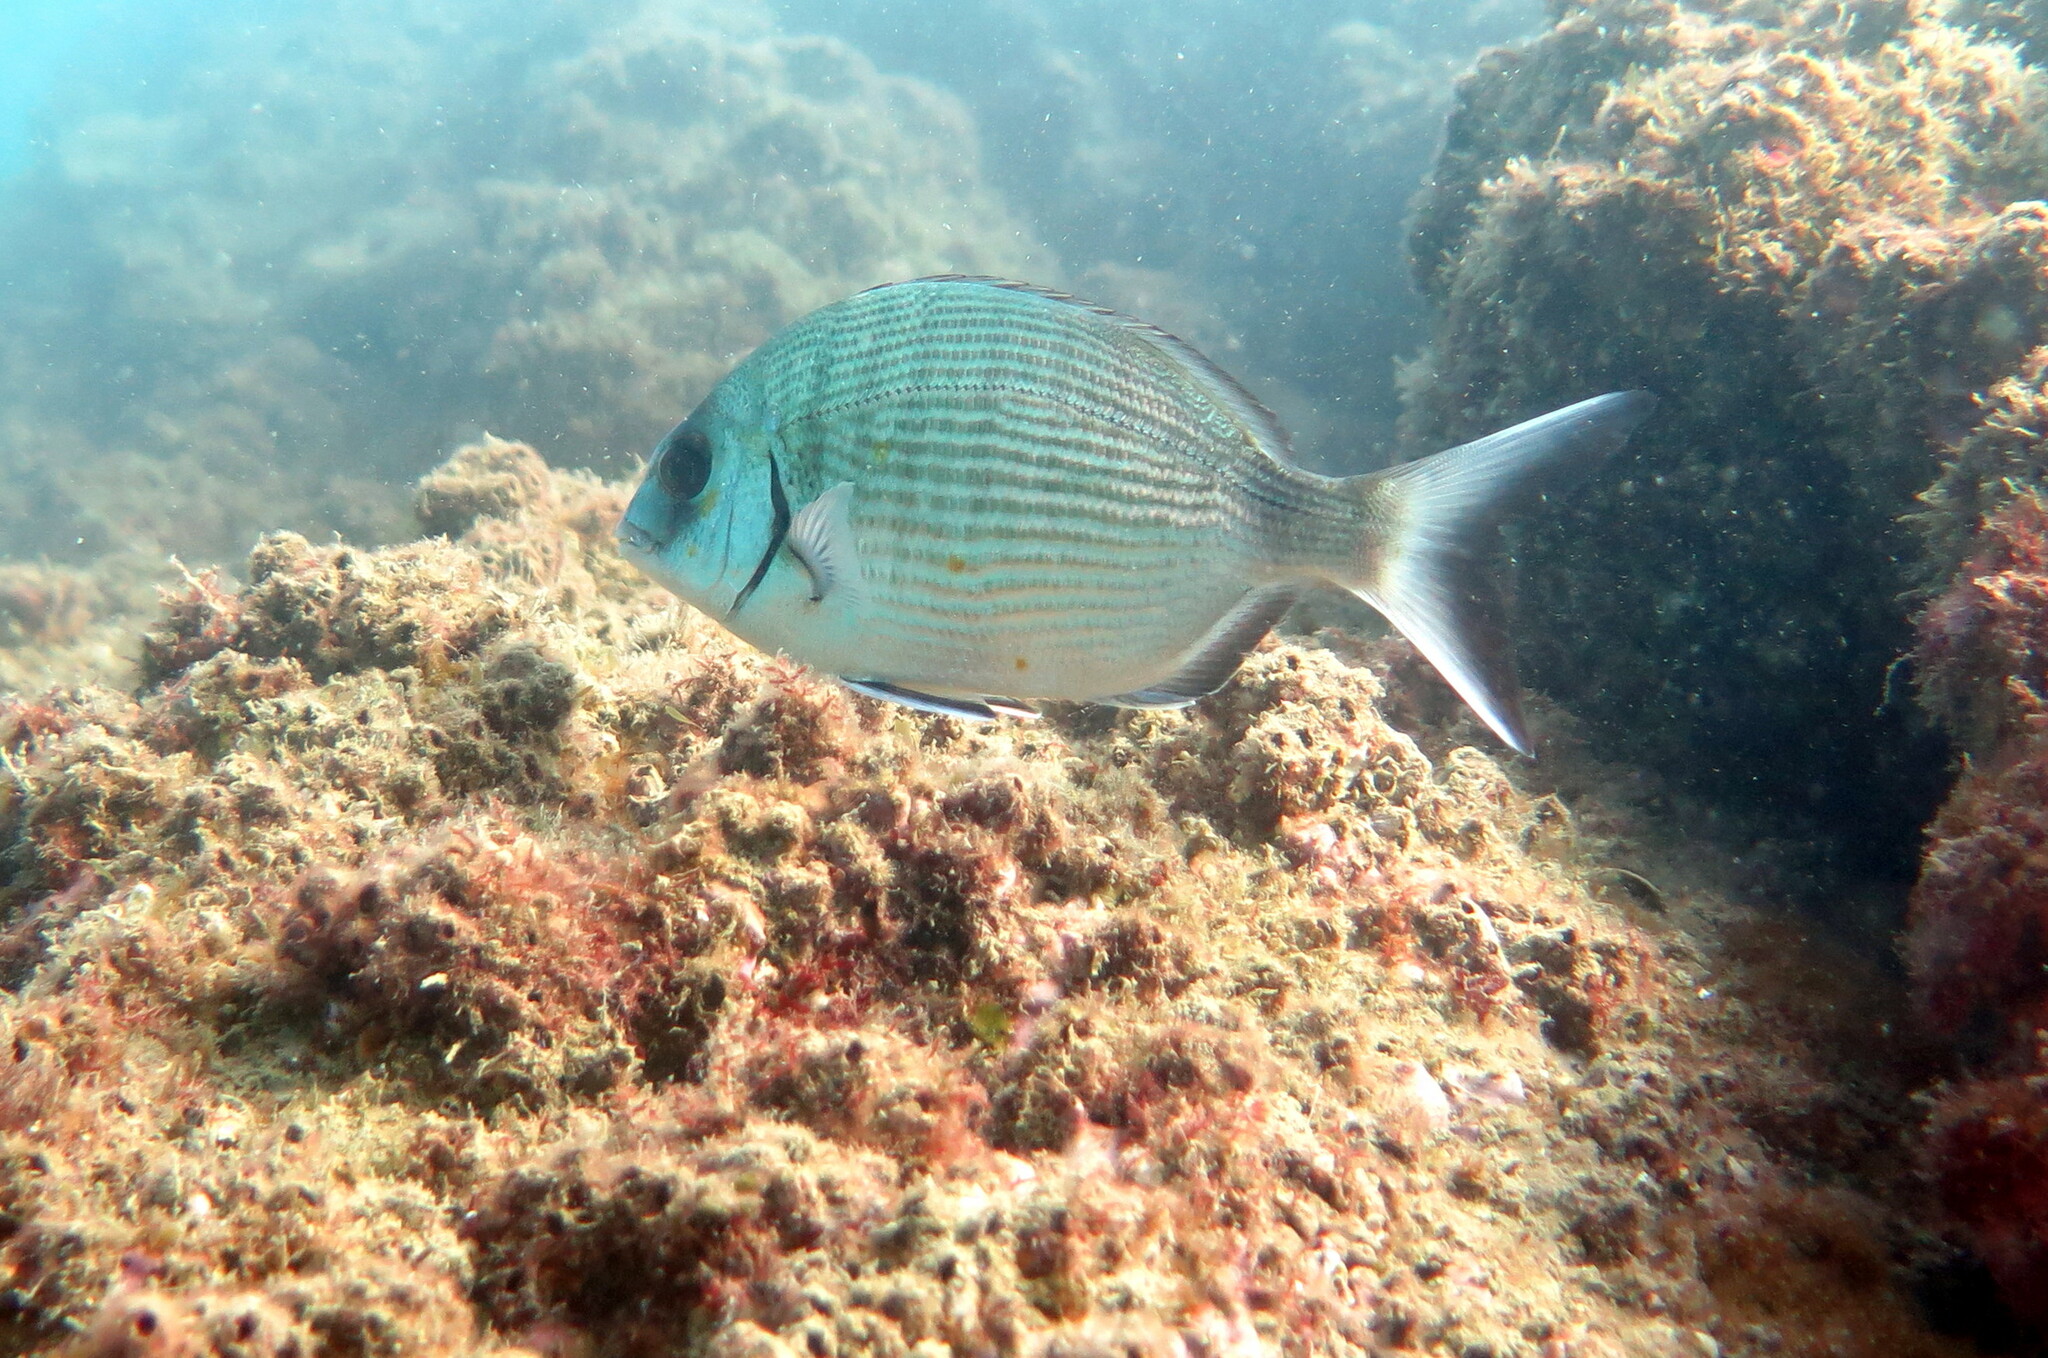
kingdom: Animalia
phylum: Chordata
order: Perciformes
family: Sparidae
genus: Diplodus
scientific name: Diplodus sargus
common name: White seabream
